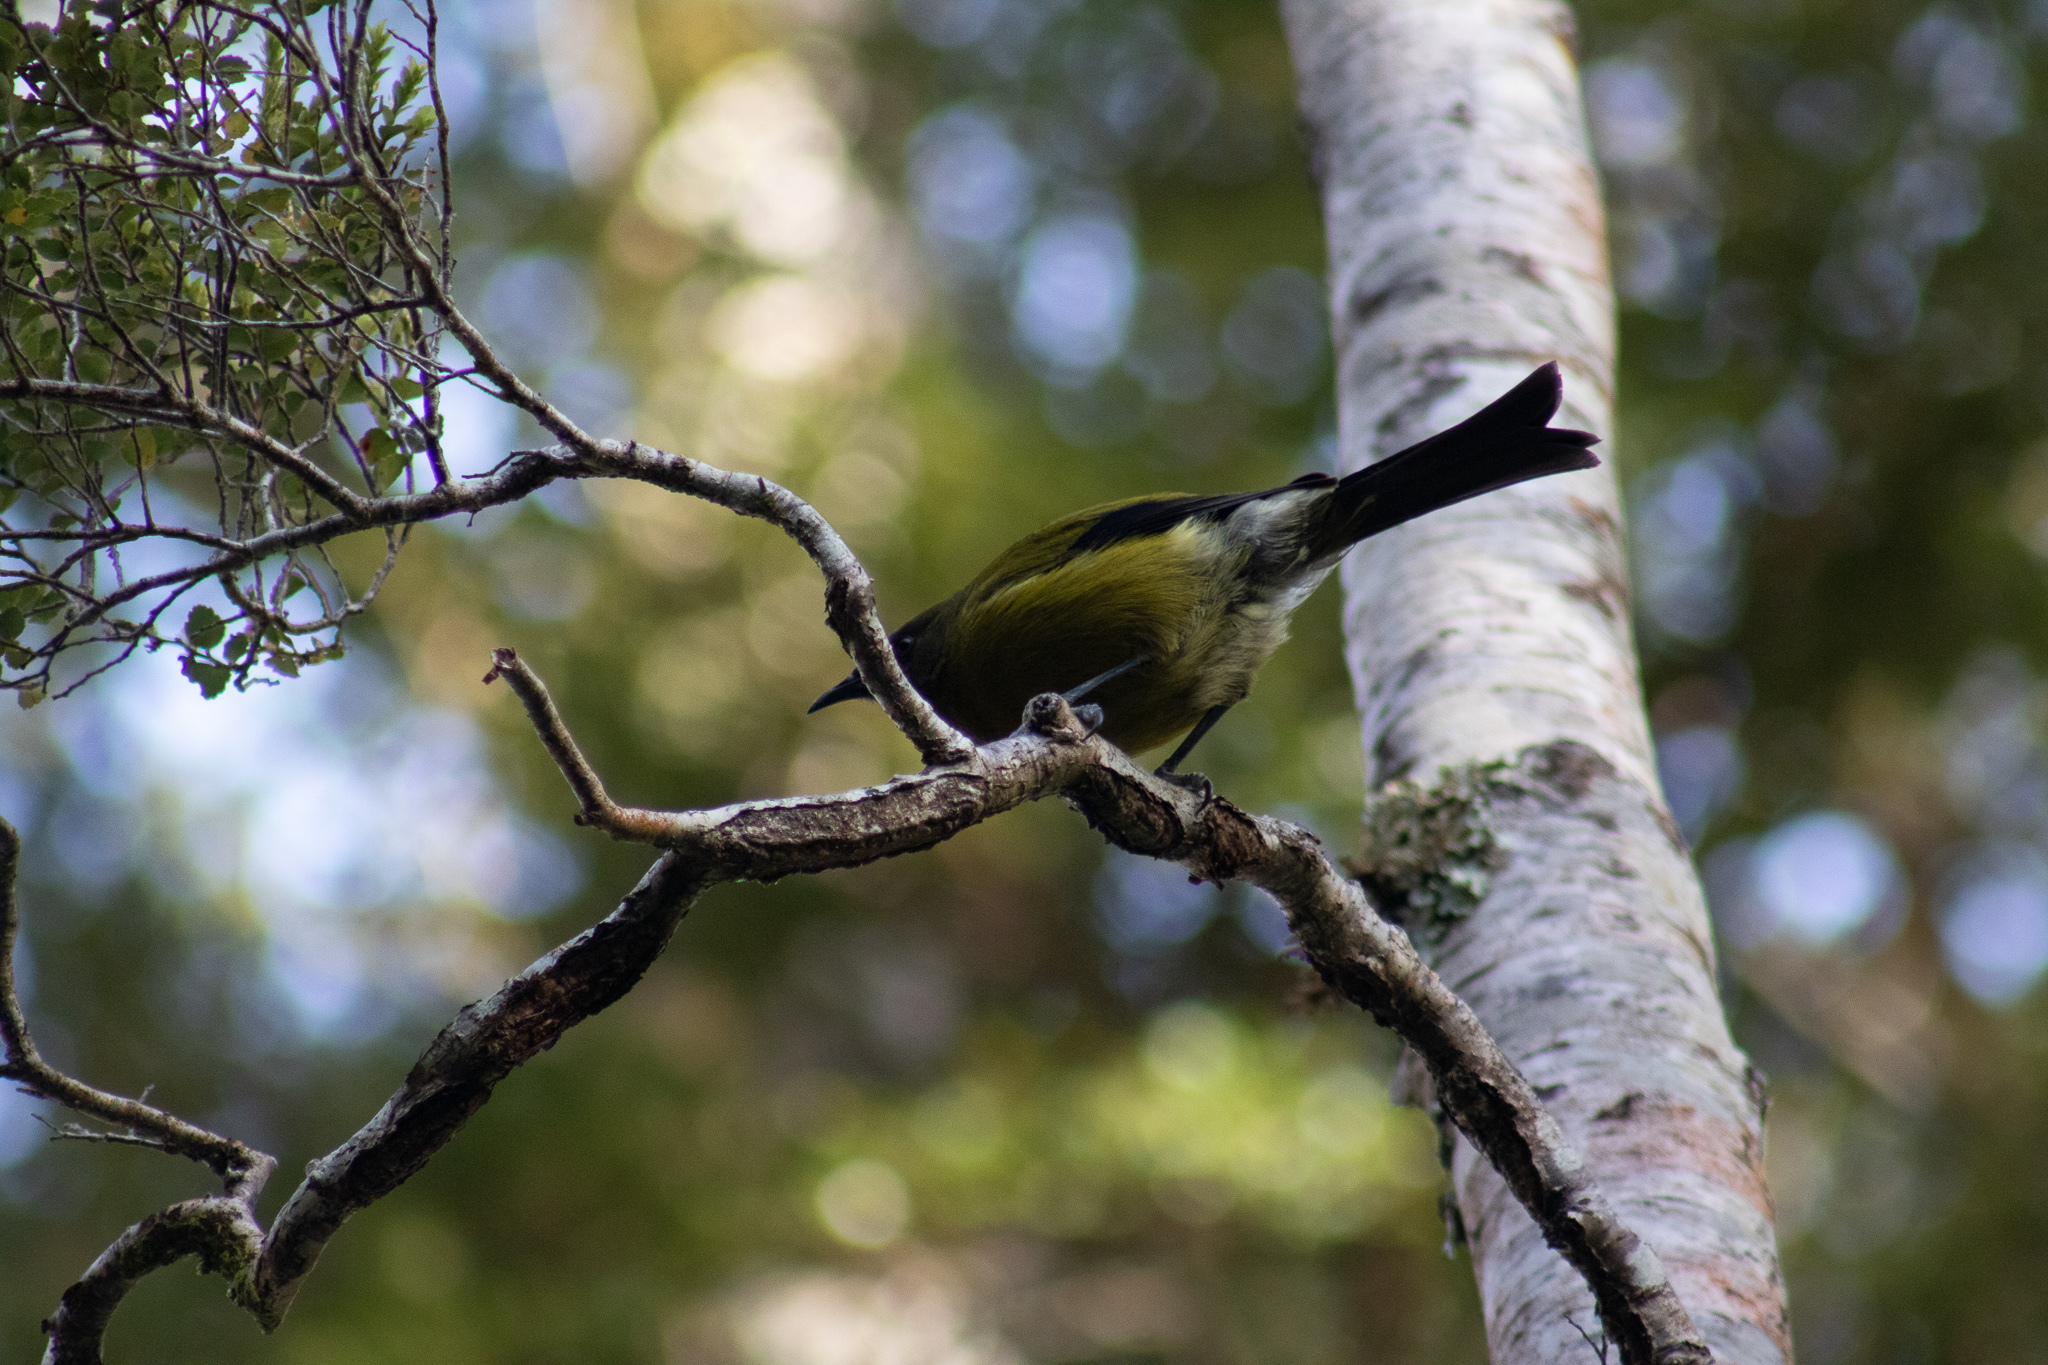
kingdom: Animalia
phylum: Chordata
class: Aves
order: Passeriformes
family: Meliphagidae
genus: Anthornis
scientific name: Anthornis melanura
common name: New zealand bellbird
